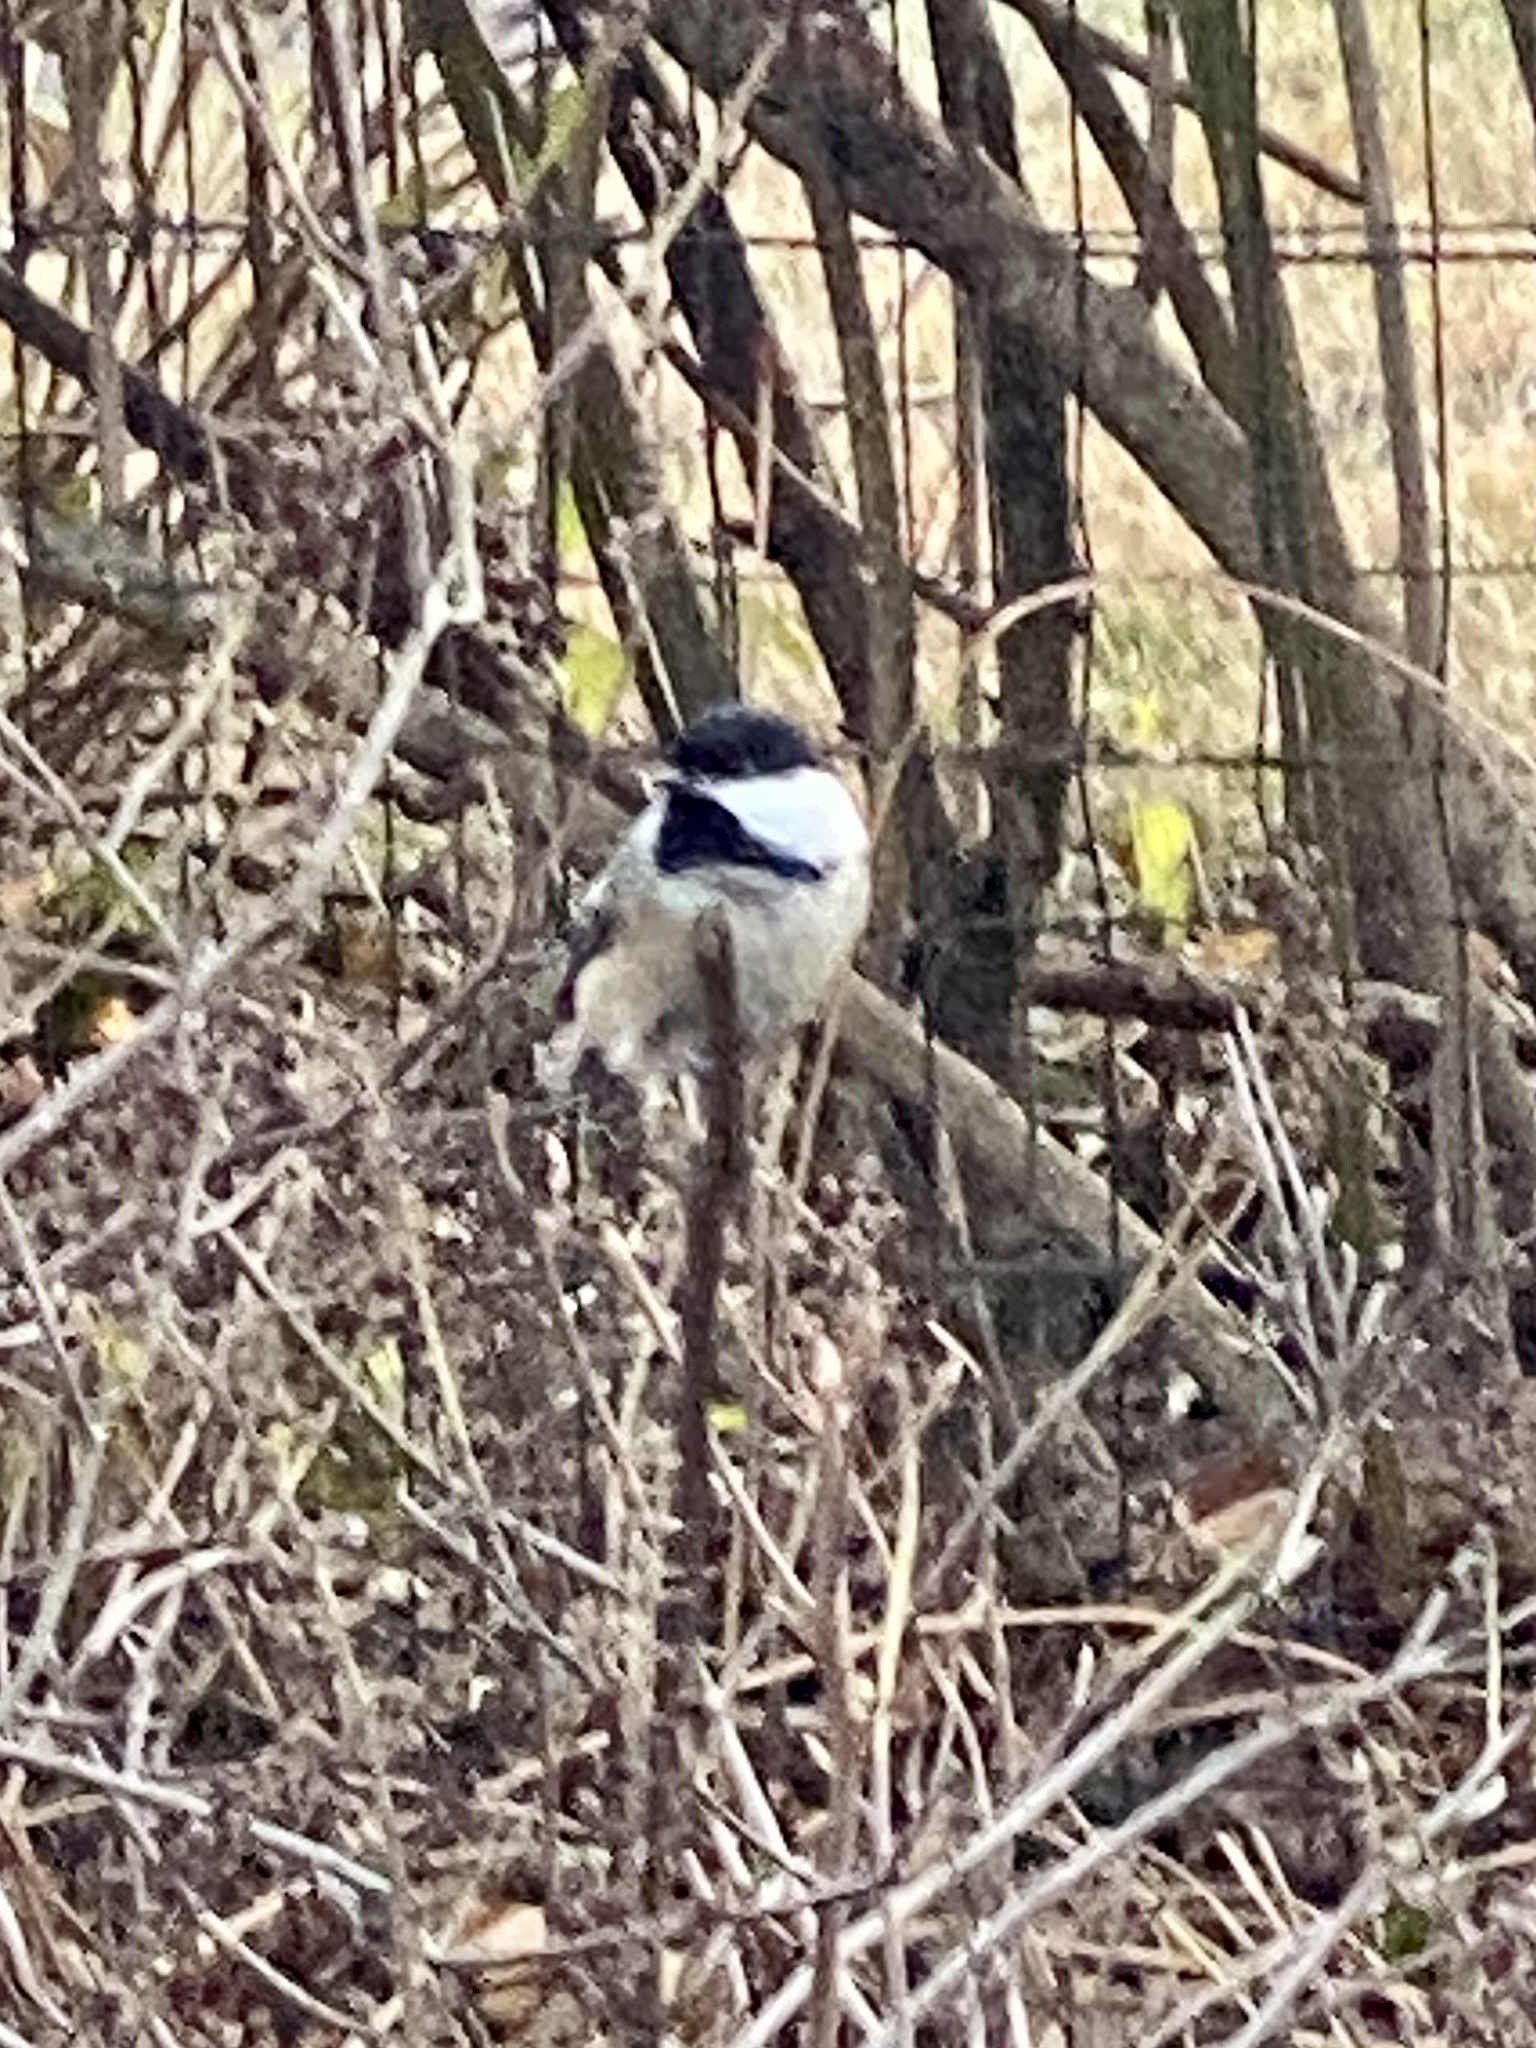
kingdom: Animalia
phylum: Chordata
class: Aves
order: Passeriformes
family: Paridae
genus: Poecile
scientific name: Poecile atricapillus
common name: Black-capped chickadee
